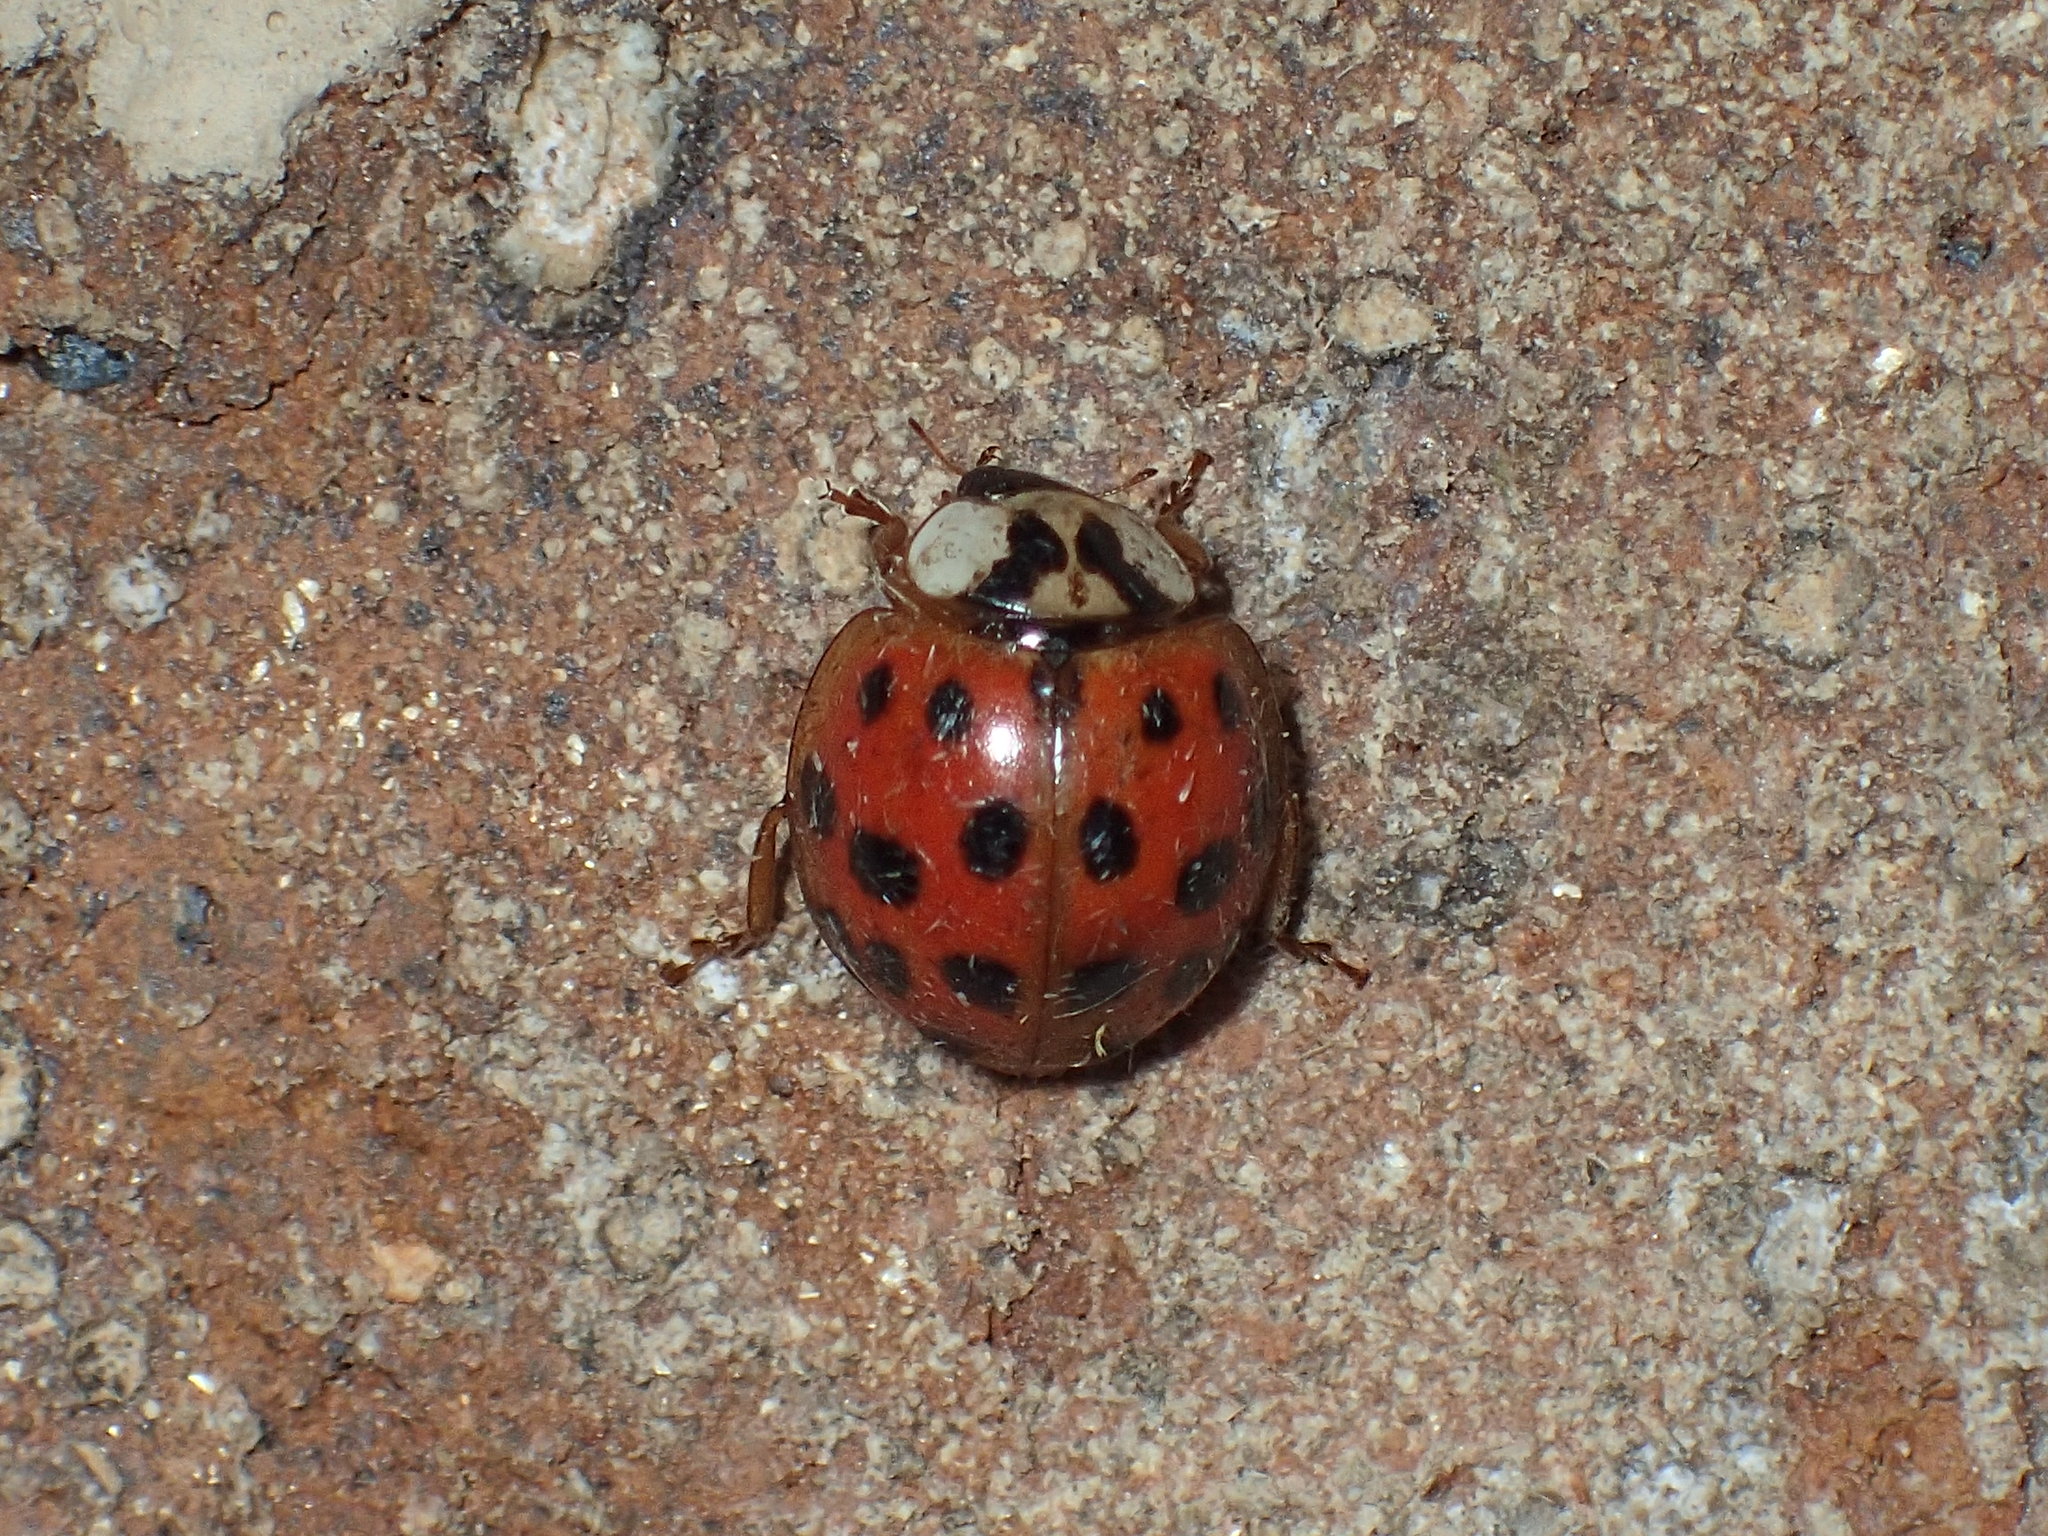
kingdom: Animalia
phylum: Arthropoda
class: Insecta
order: Coleoptera
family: Coccinellidae
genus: Harmonia
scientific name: Harmonia axyridis
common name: Harlequin ladybird
